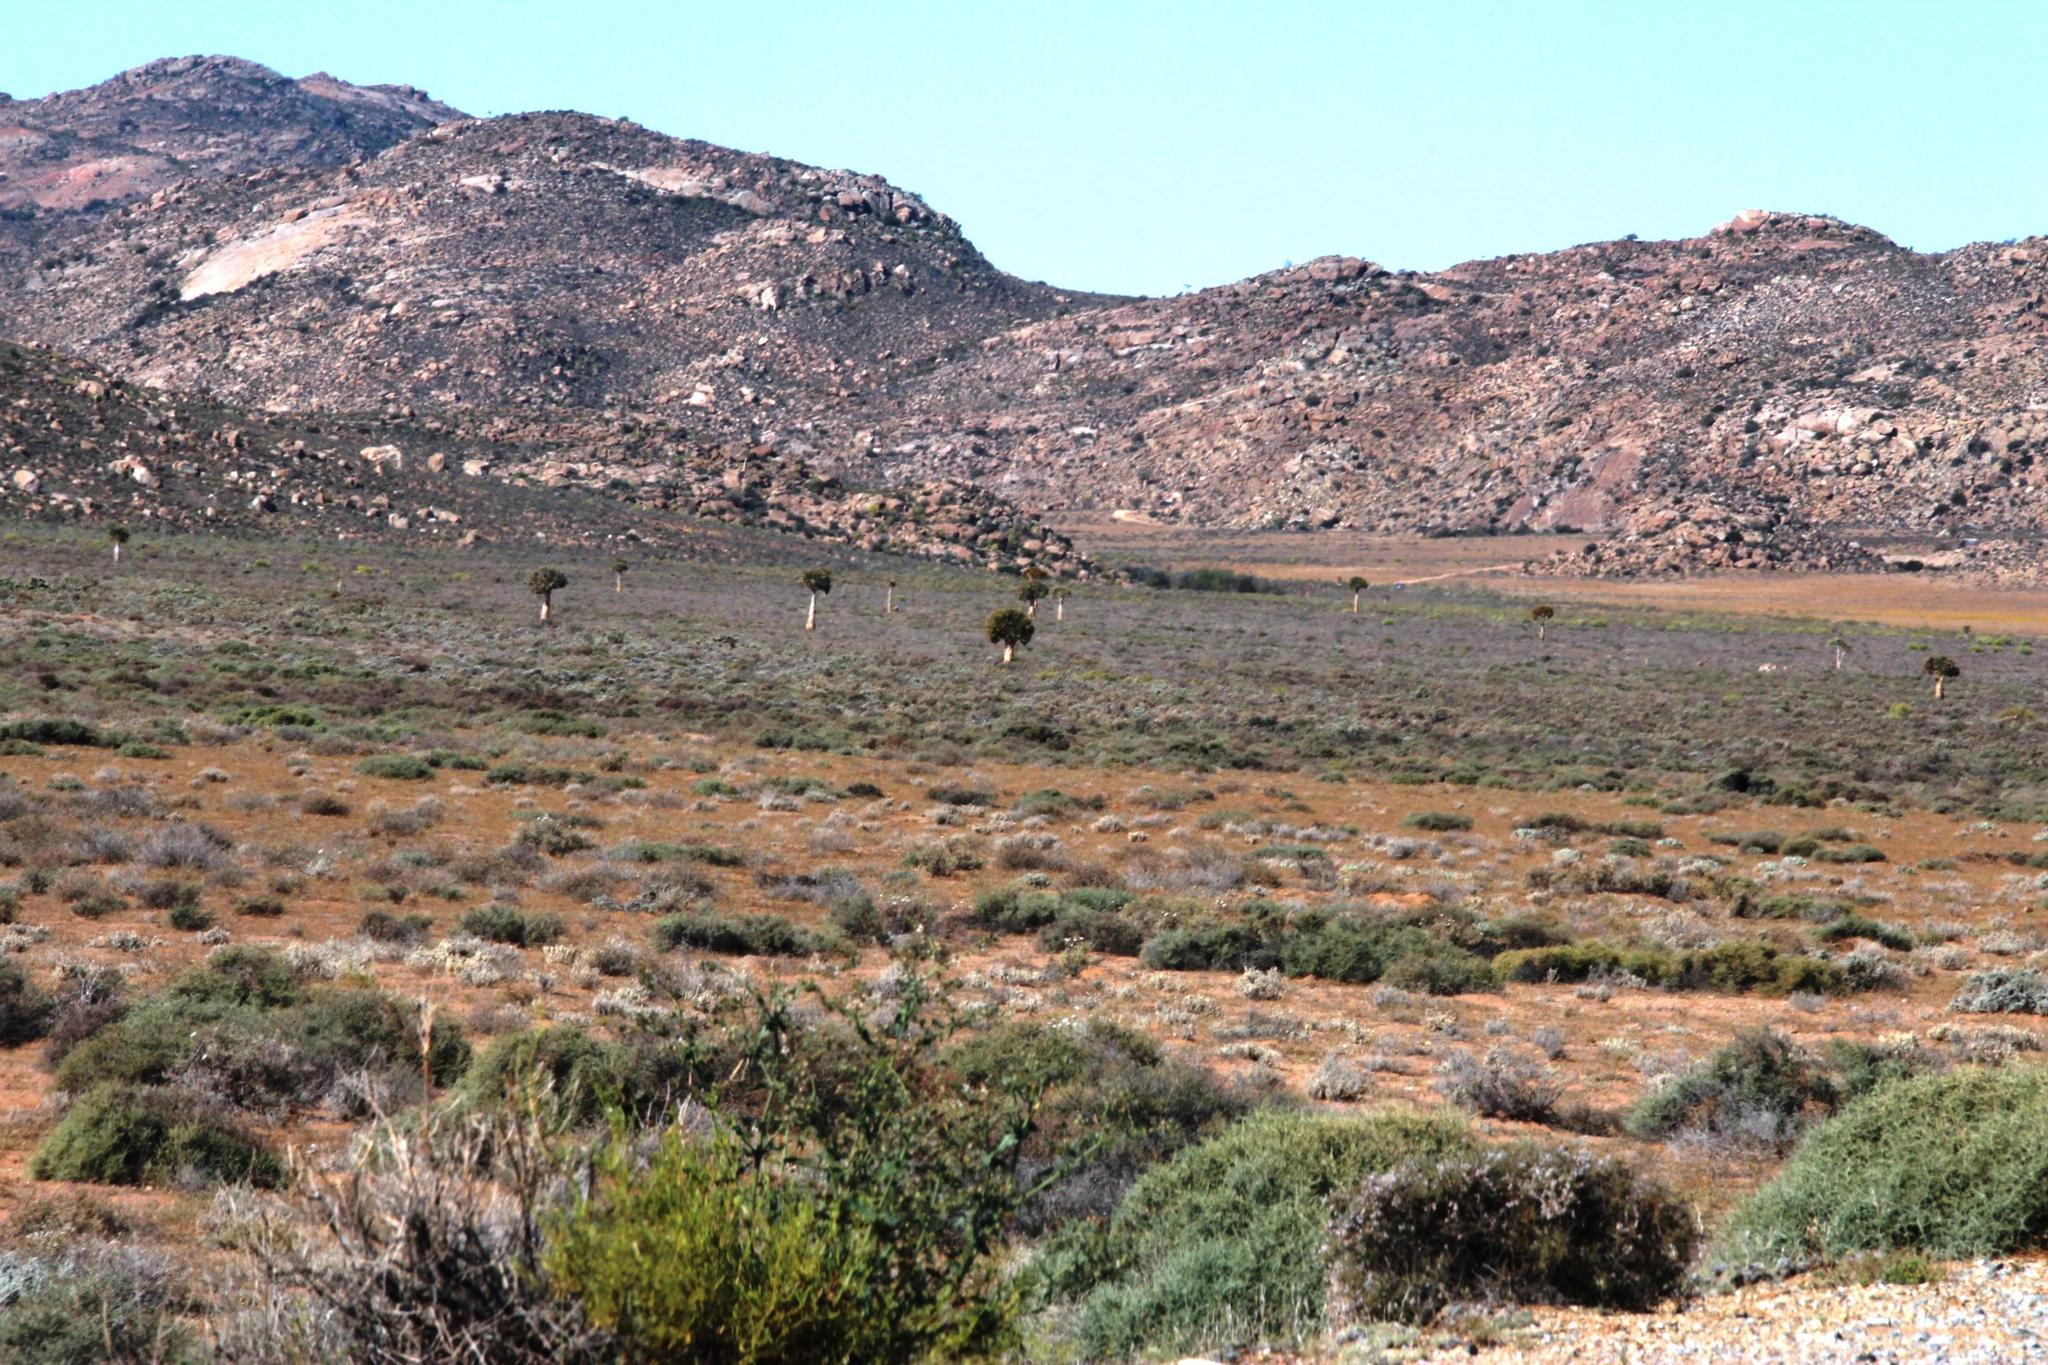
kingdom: Plantae
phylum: Tracheophyta
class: Liliopsida
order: Asparagales
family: Asphodelaceae
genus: Aloidendron
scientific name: Aloidendron dichotomum
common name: Quiver tree
